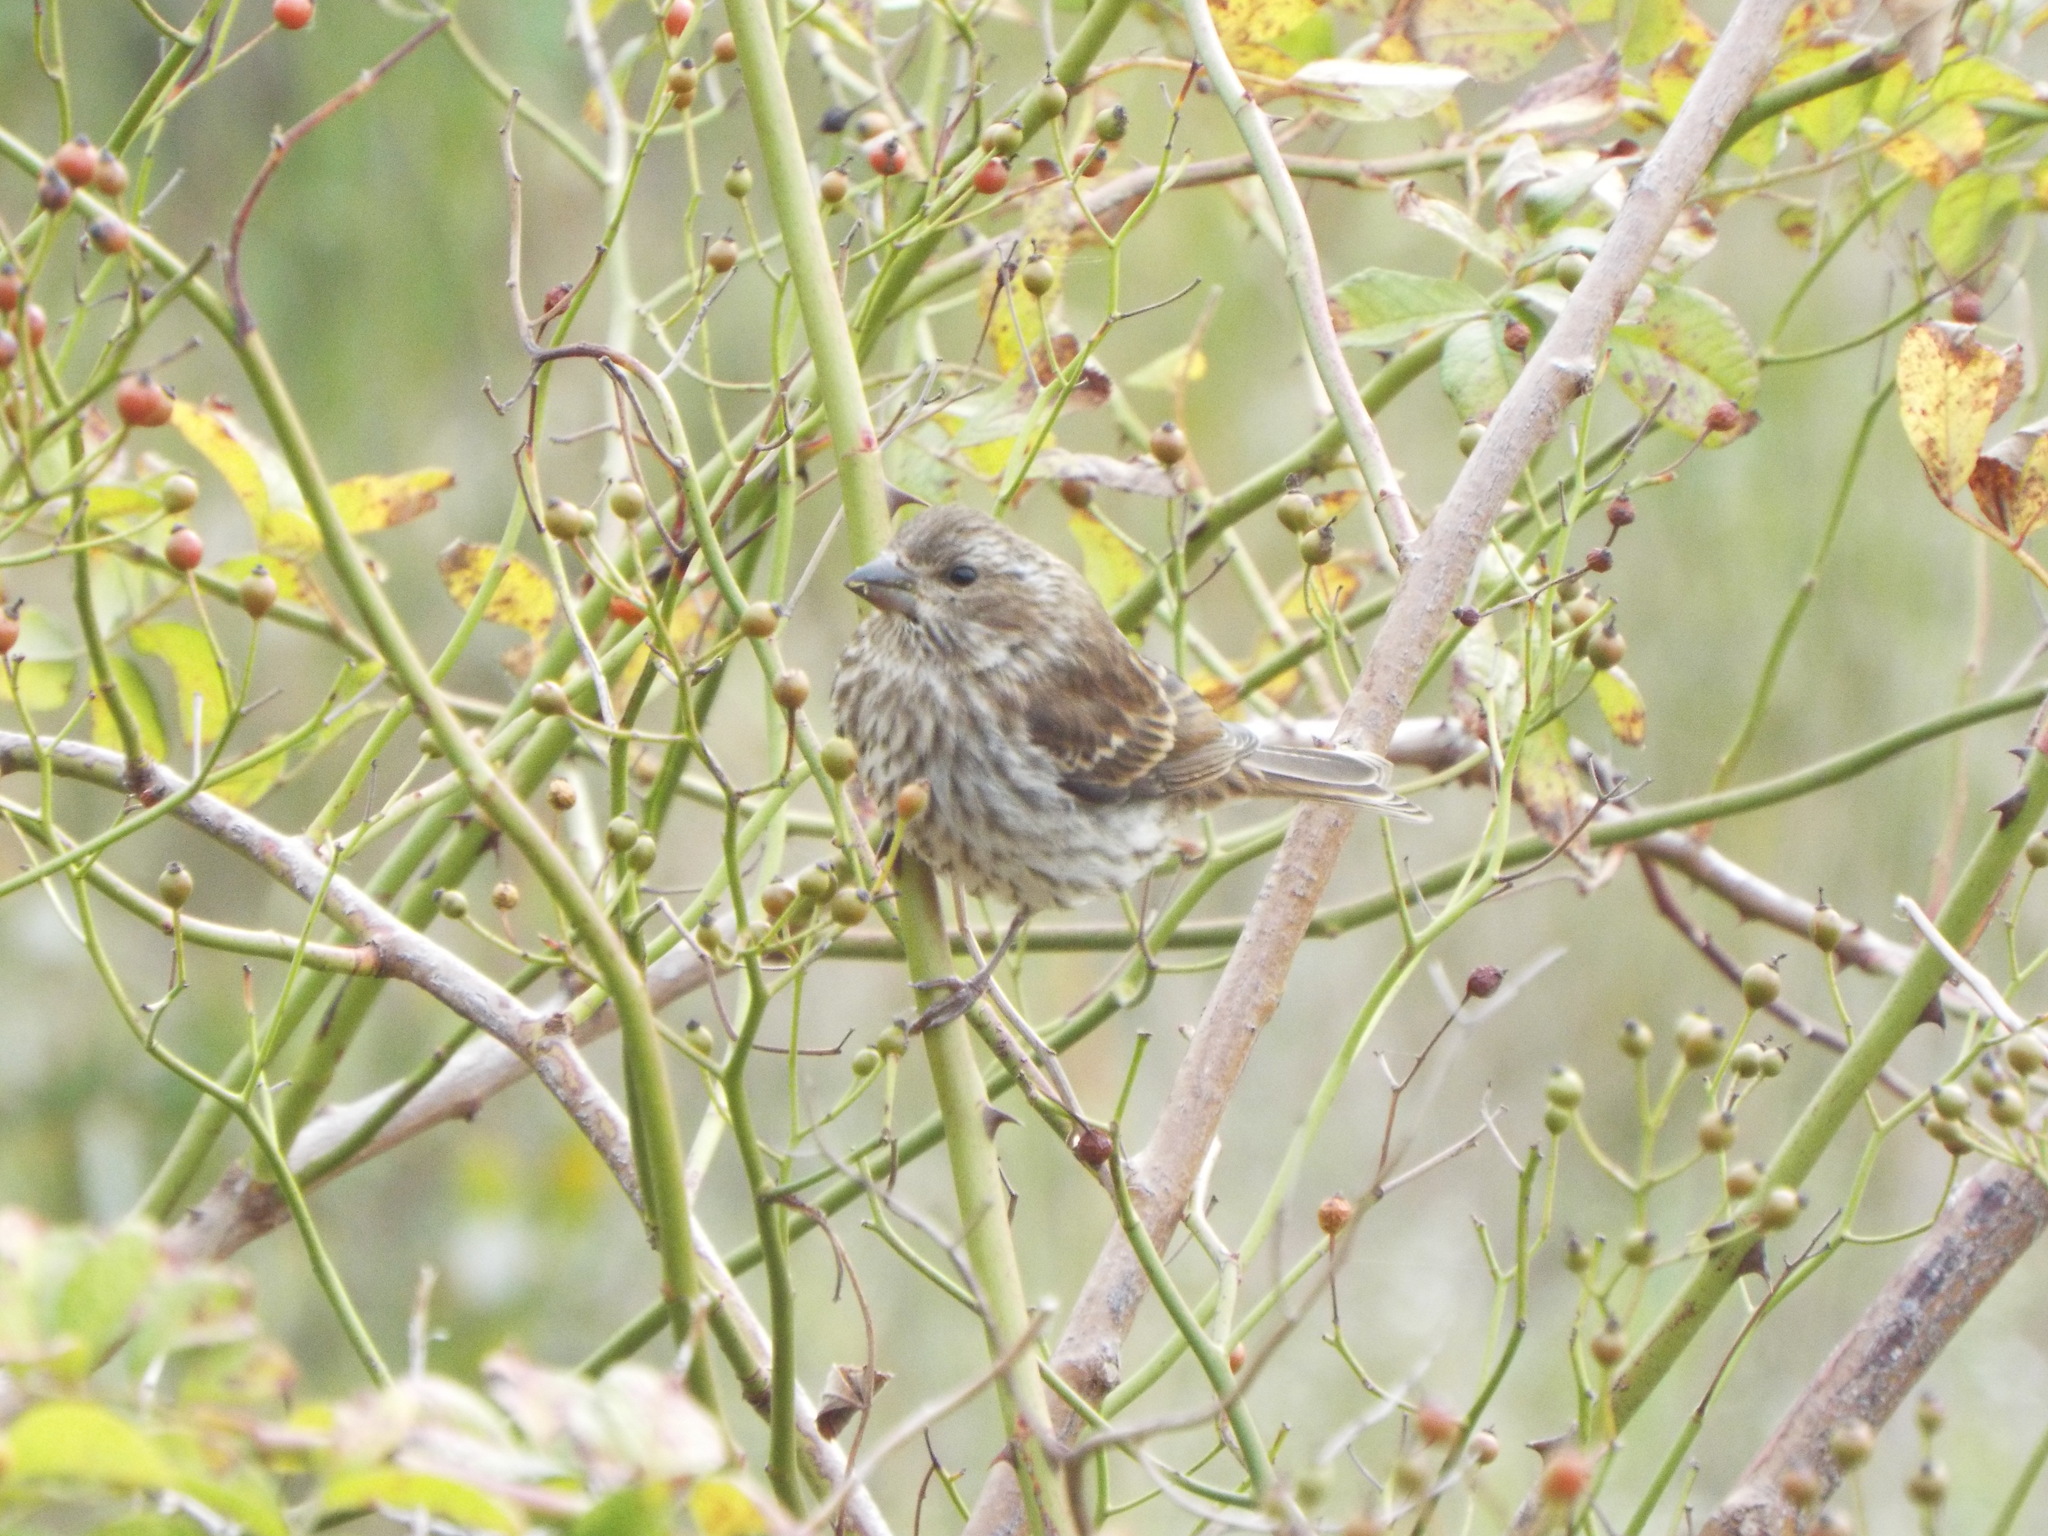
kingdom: Animalia
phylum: Chordata
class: Aves
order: Passeriformes
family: Fringillidae
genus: Haemorhous
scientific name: Haemorhous purpureus
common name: Purple finch
